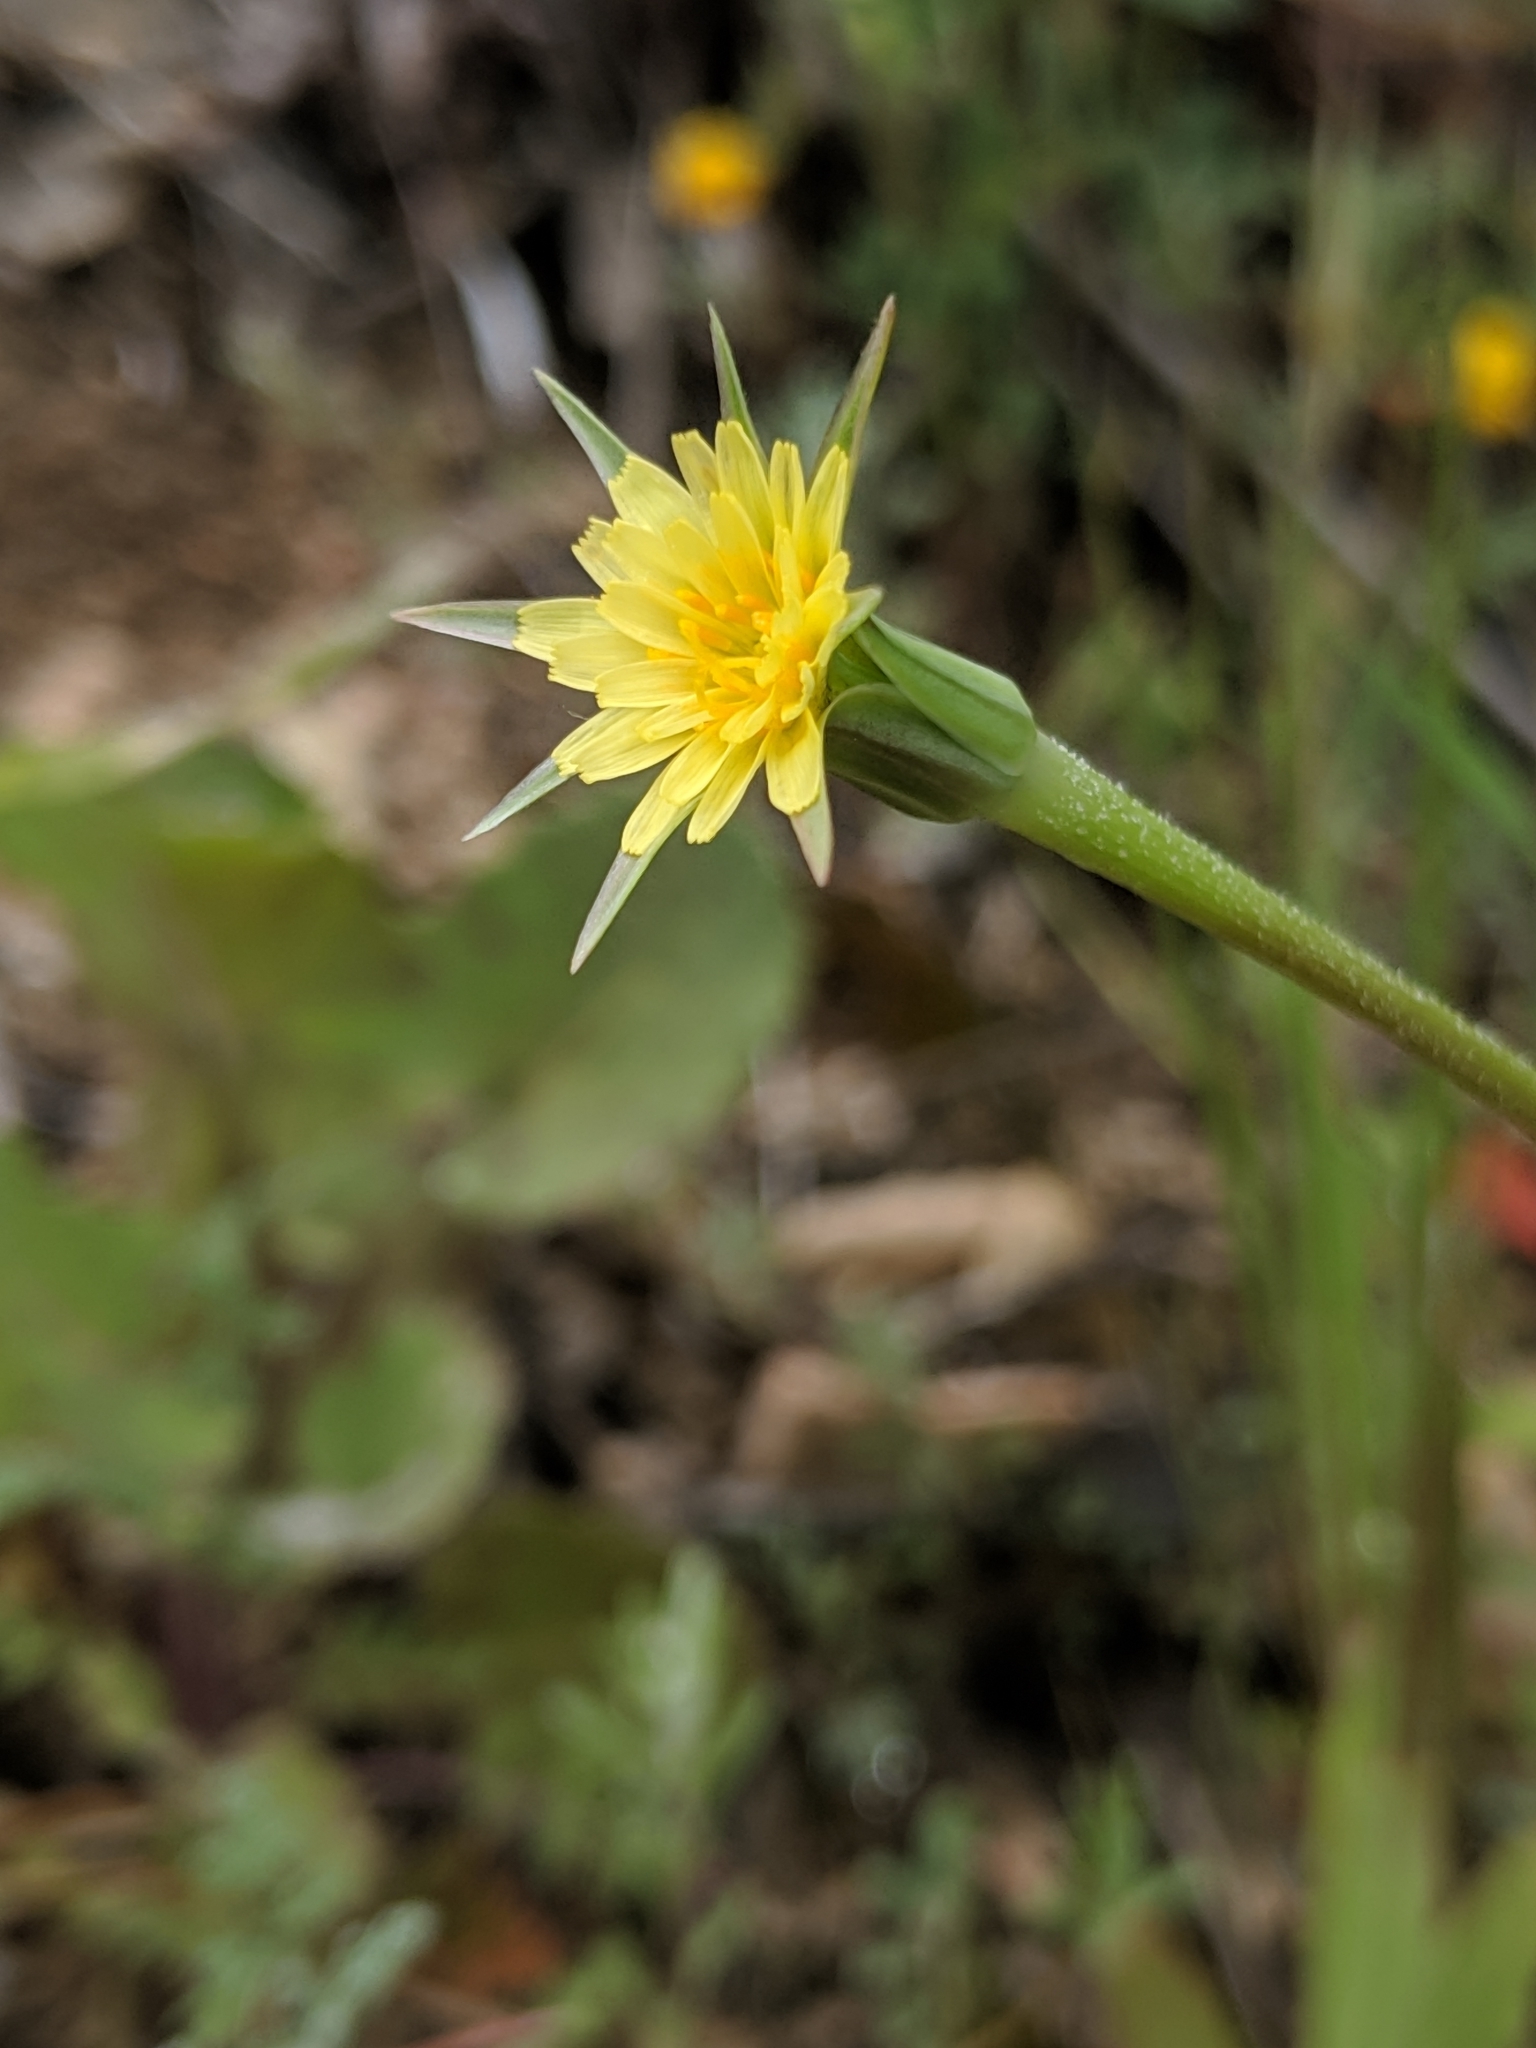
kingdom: Plantae
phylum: Tracheophyta
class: Magnoliopsida
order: Asterales
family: Asteraceae
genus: Microseris
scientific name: Microseris lindleyi
